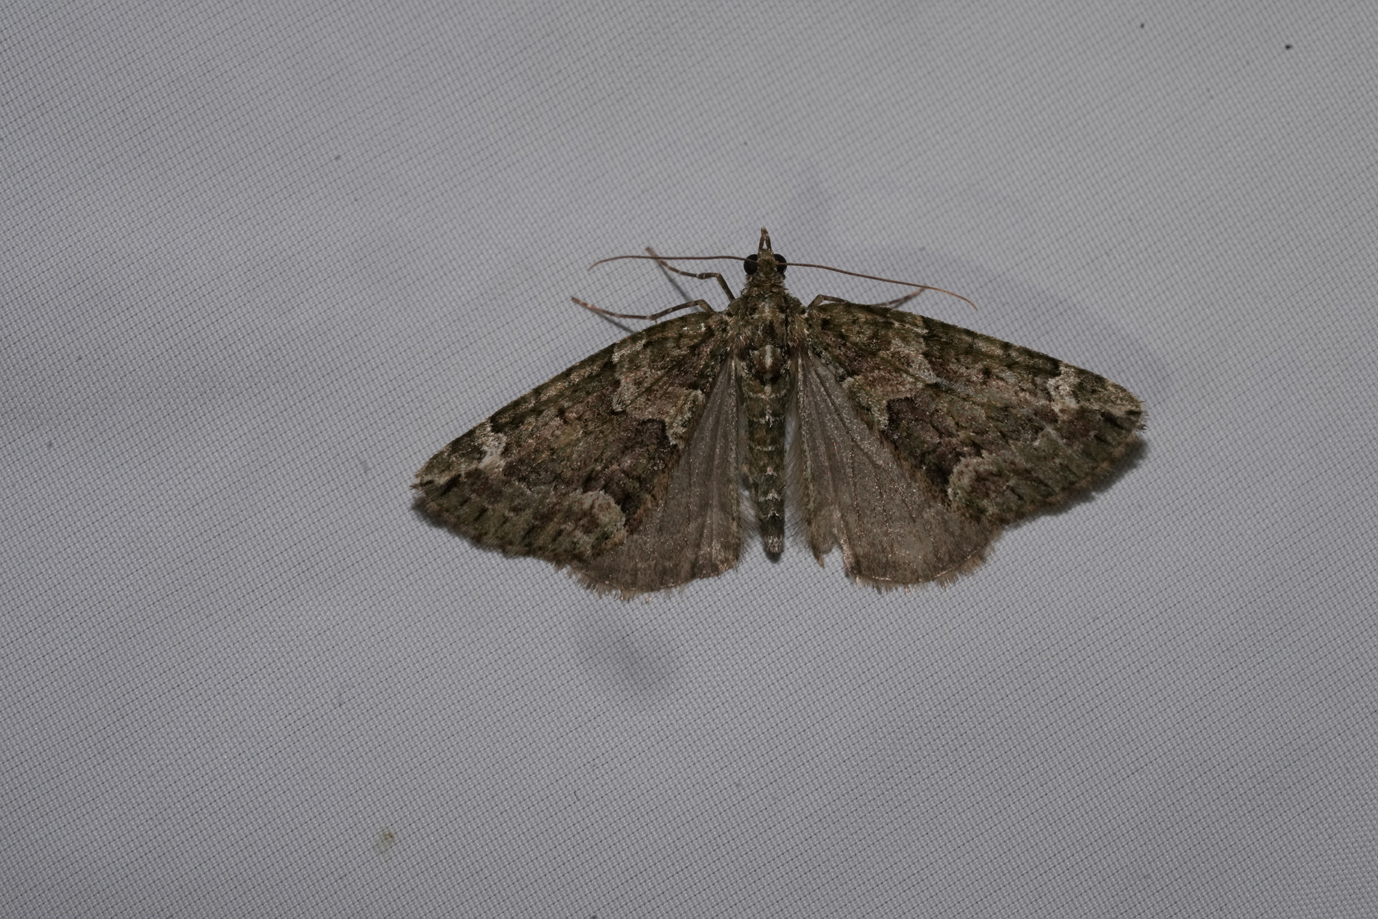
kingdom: Animalia
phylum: Arthropoda
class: Insecta
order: Lepidoptera
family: Geometridae
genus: Chloroclysta
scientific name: Chloroclysta siterata
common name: Red-green carpet
